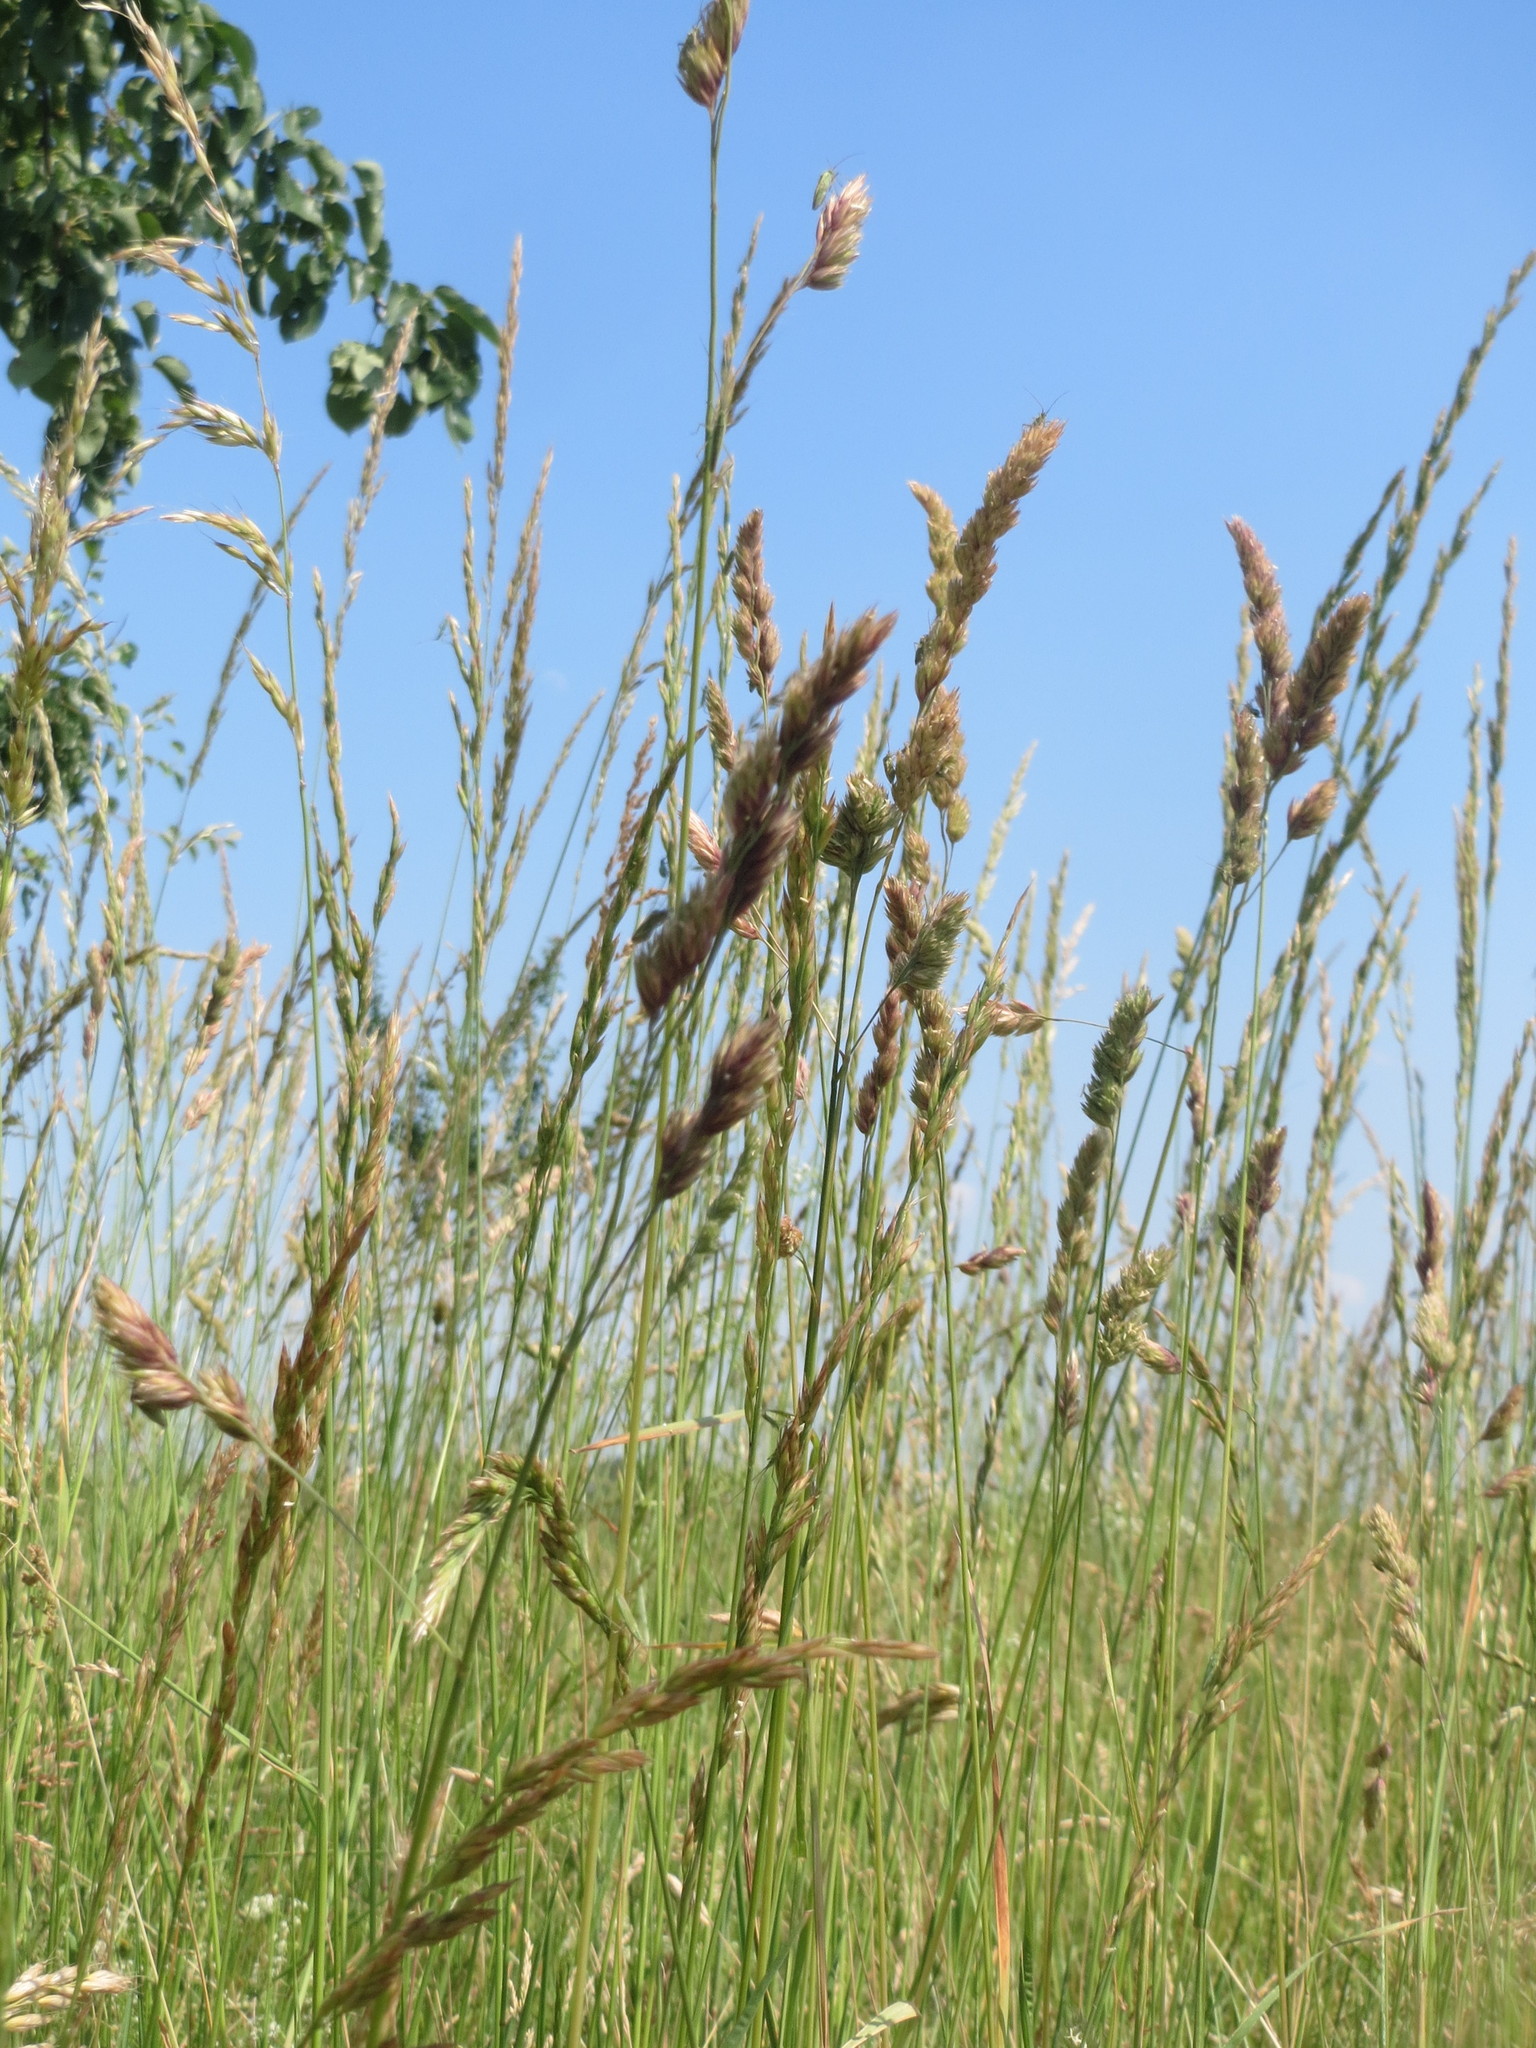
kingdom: Plantae
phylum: Tracheophyta
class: Liliopsida
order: Poales
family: Poaceae
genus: Dactylis
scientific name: Dactylis glomerata
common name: Orchardgrass
